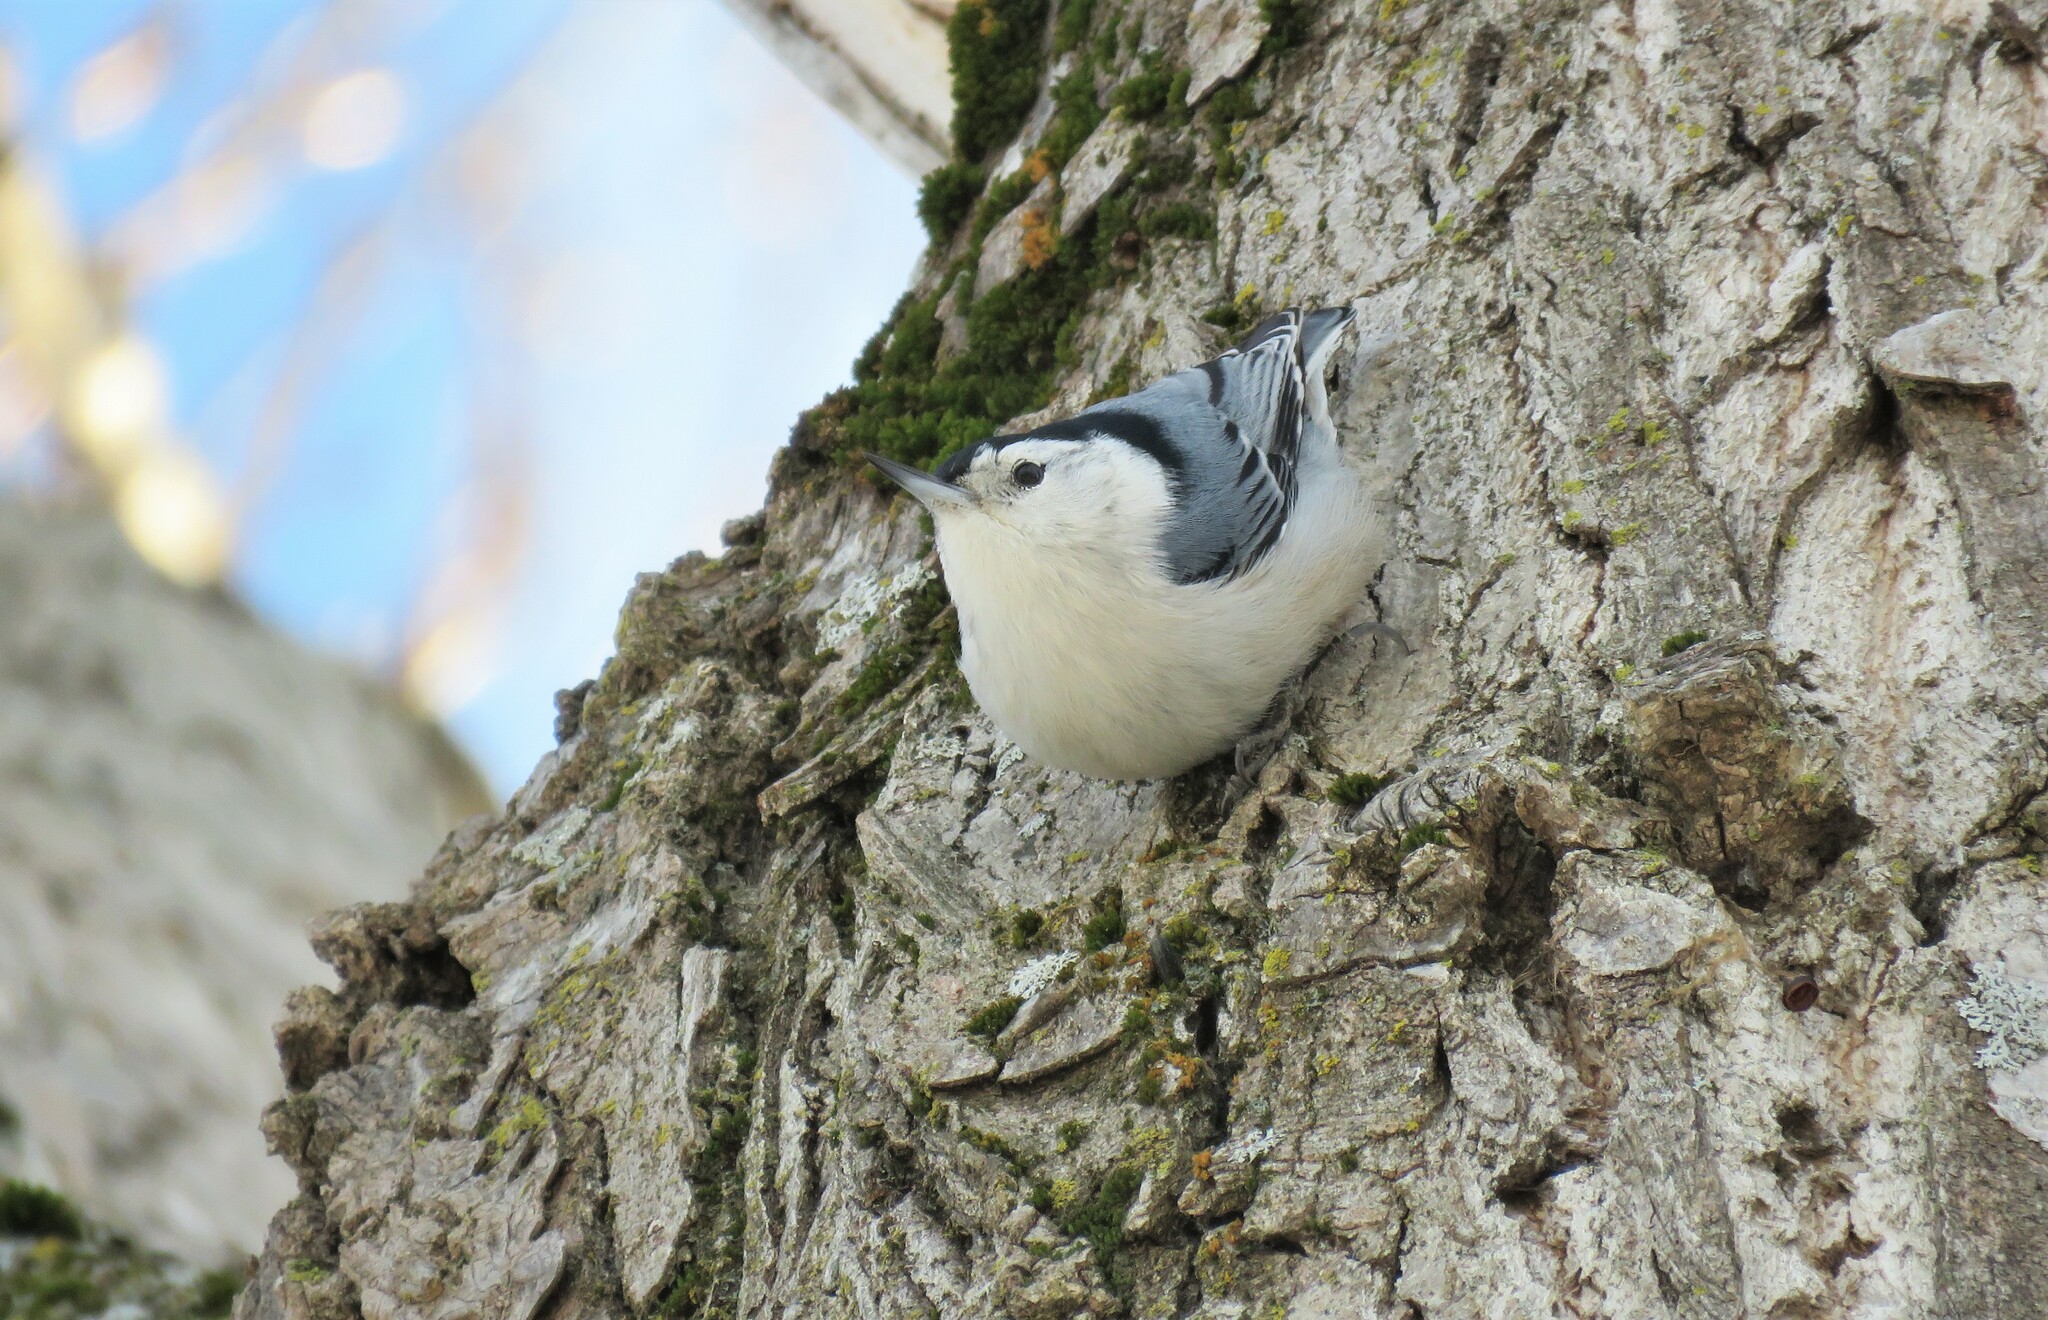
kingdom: Animalia
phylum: Chordata
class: Aves
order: Passeriformes
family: Sittidae
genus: Sitta
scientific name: Sitta carolinensis
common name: White-breasted nuthatch
